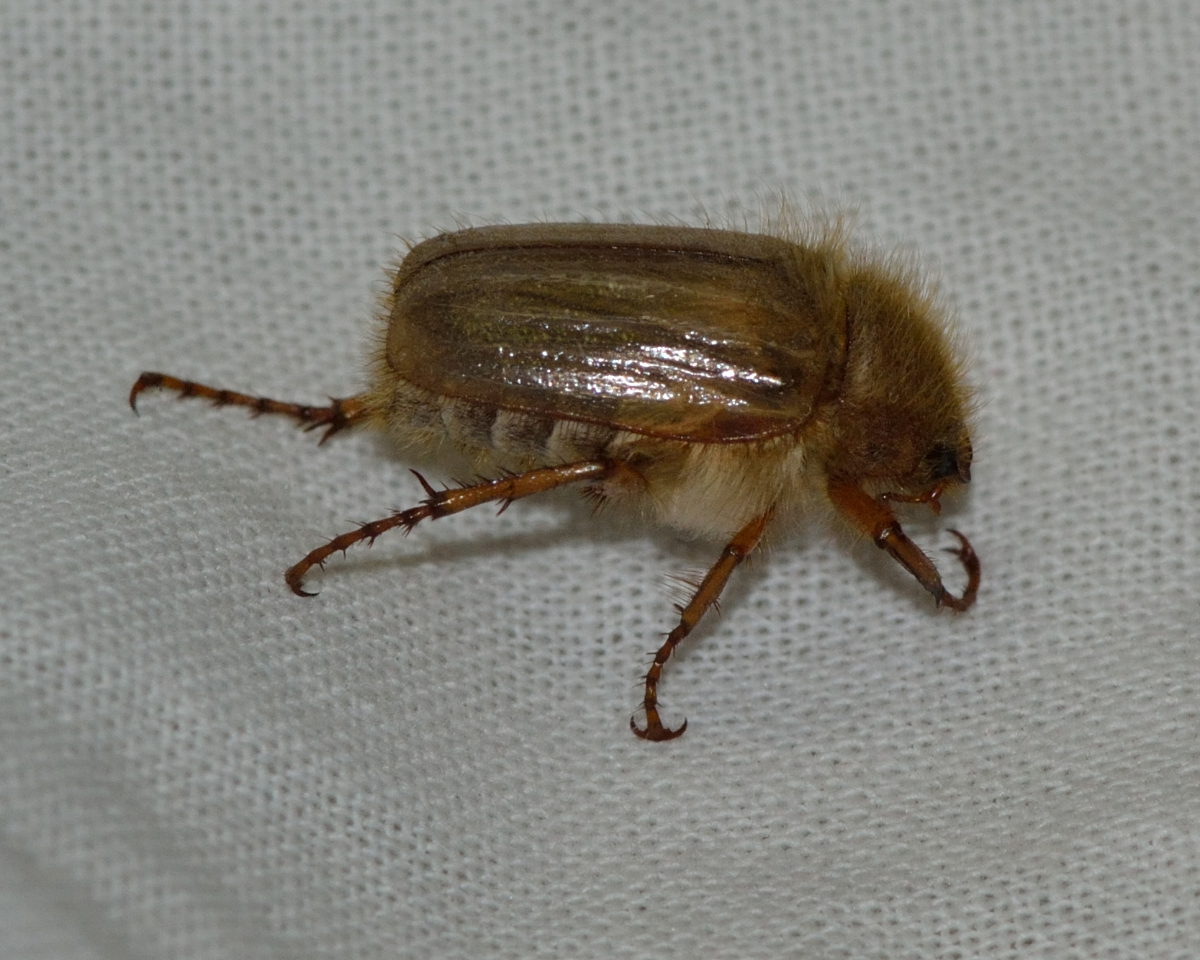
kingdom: Animalia
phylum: Arthropoda
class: Insecta
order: Coleoptera
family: Scarabaeidae
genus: Amphimallon
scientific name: Amphimallon solstitiale
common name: Summer chafer
